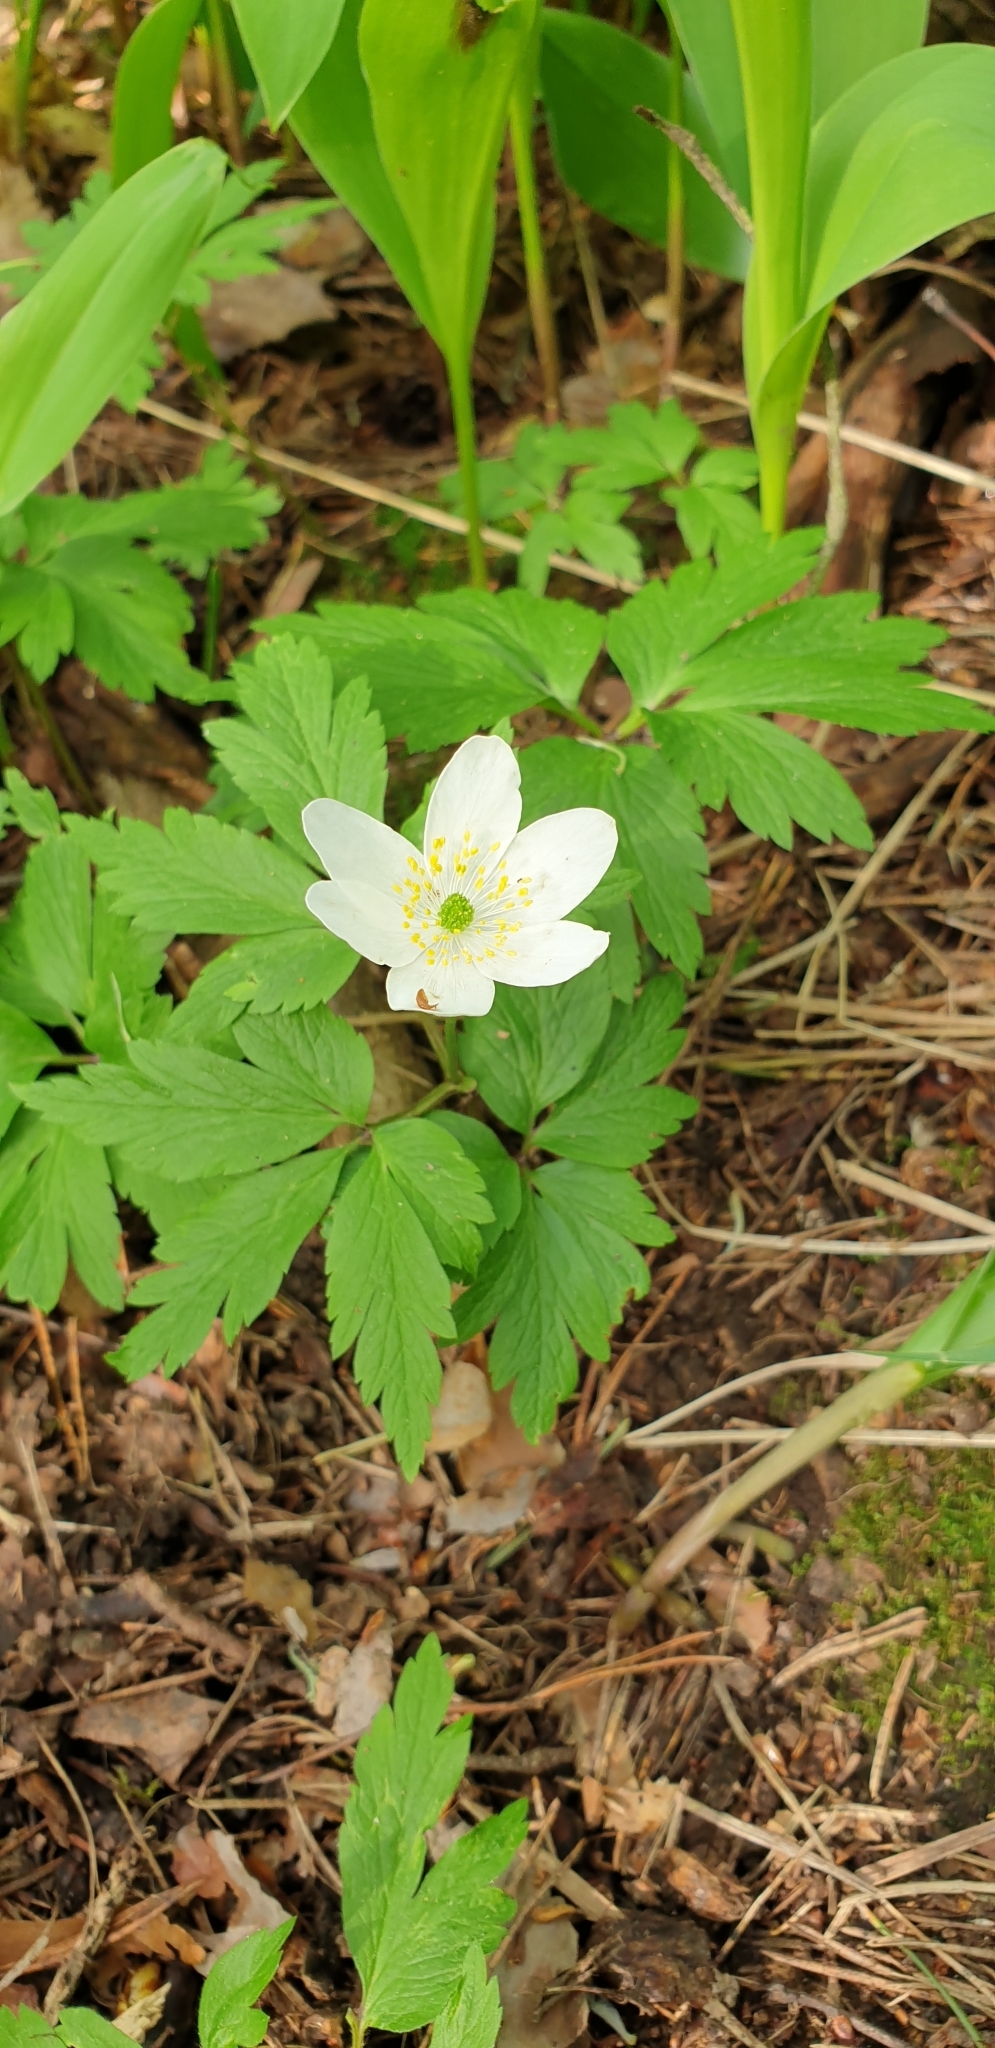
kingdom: Plantae
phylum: Tracheophyta
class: Magnoliopsida
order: Ranunculales
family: Ranunculaceae
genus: Anemone
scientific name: Anemone nemorosa
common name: Wood anemone
